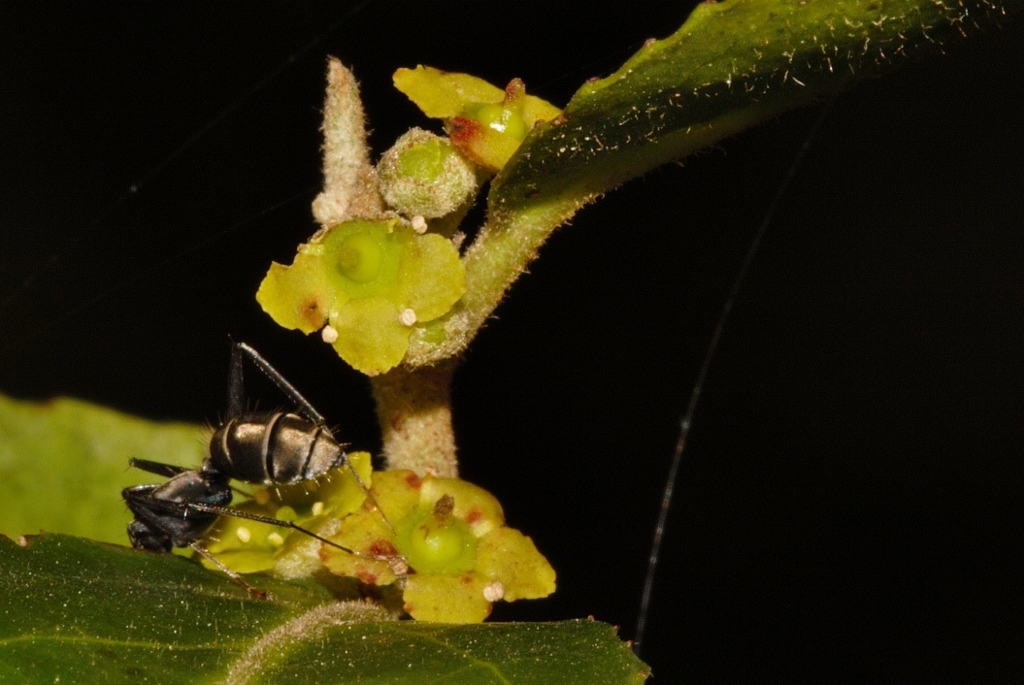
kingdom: Plantae
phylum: Tracheophyta
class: Magnoliopsida
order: Celastrales
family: Celastraceae
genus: Mystroxylon
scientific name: Mystroxylon aethiopicum
